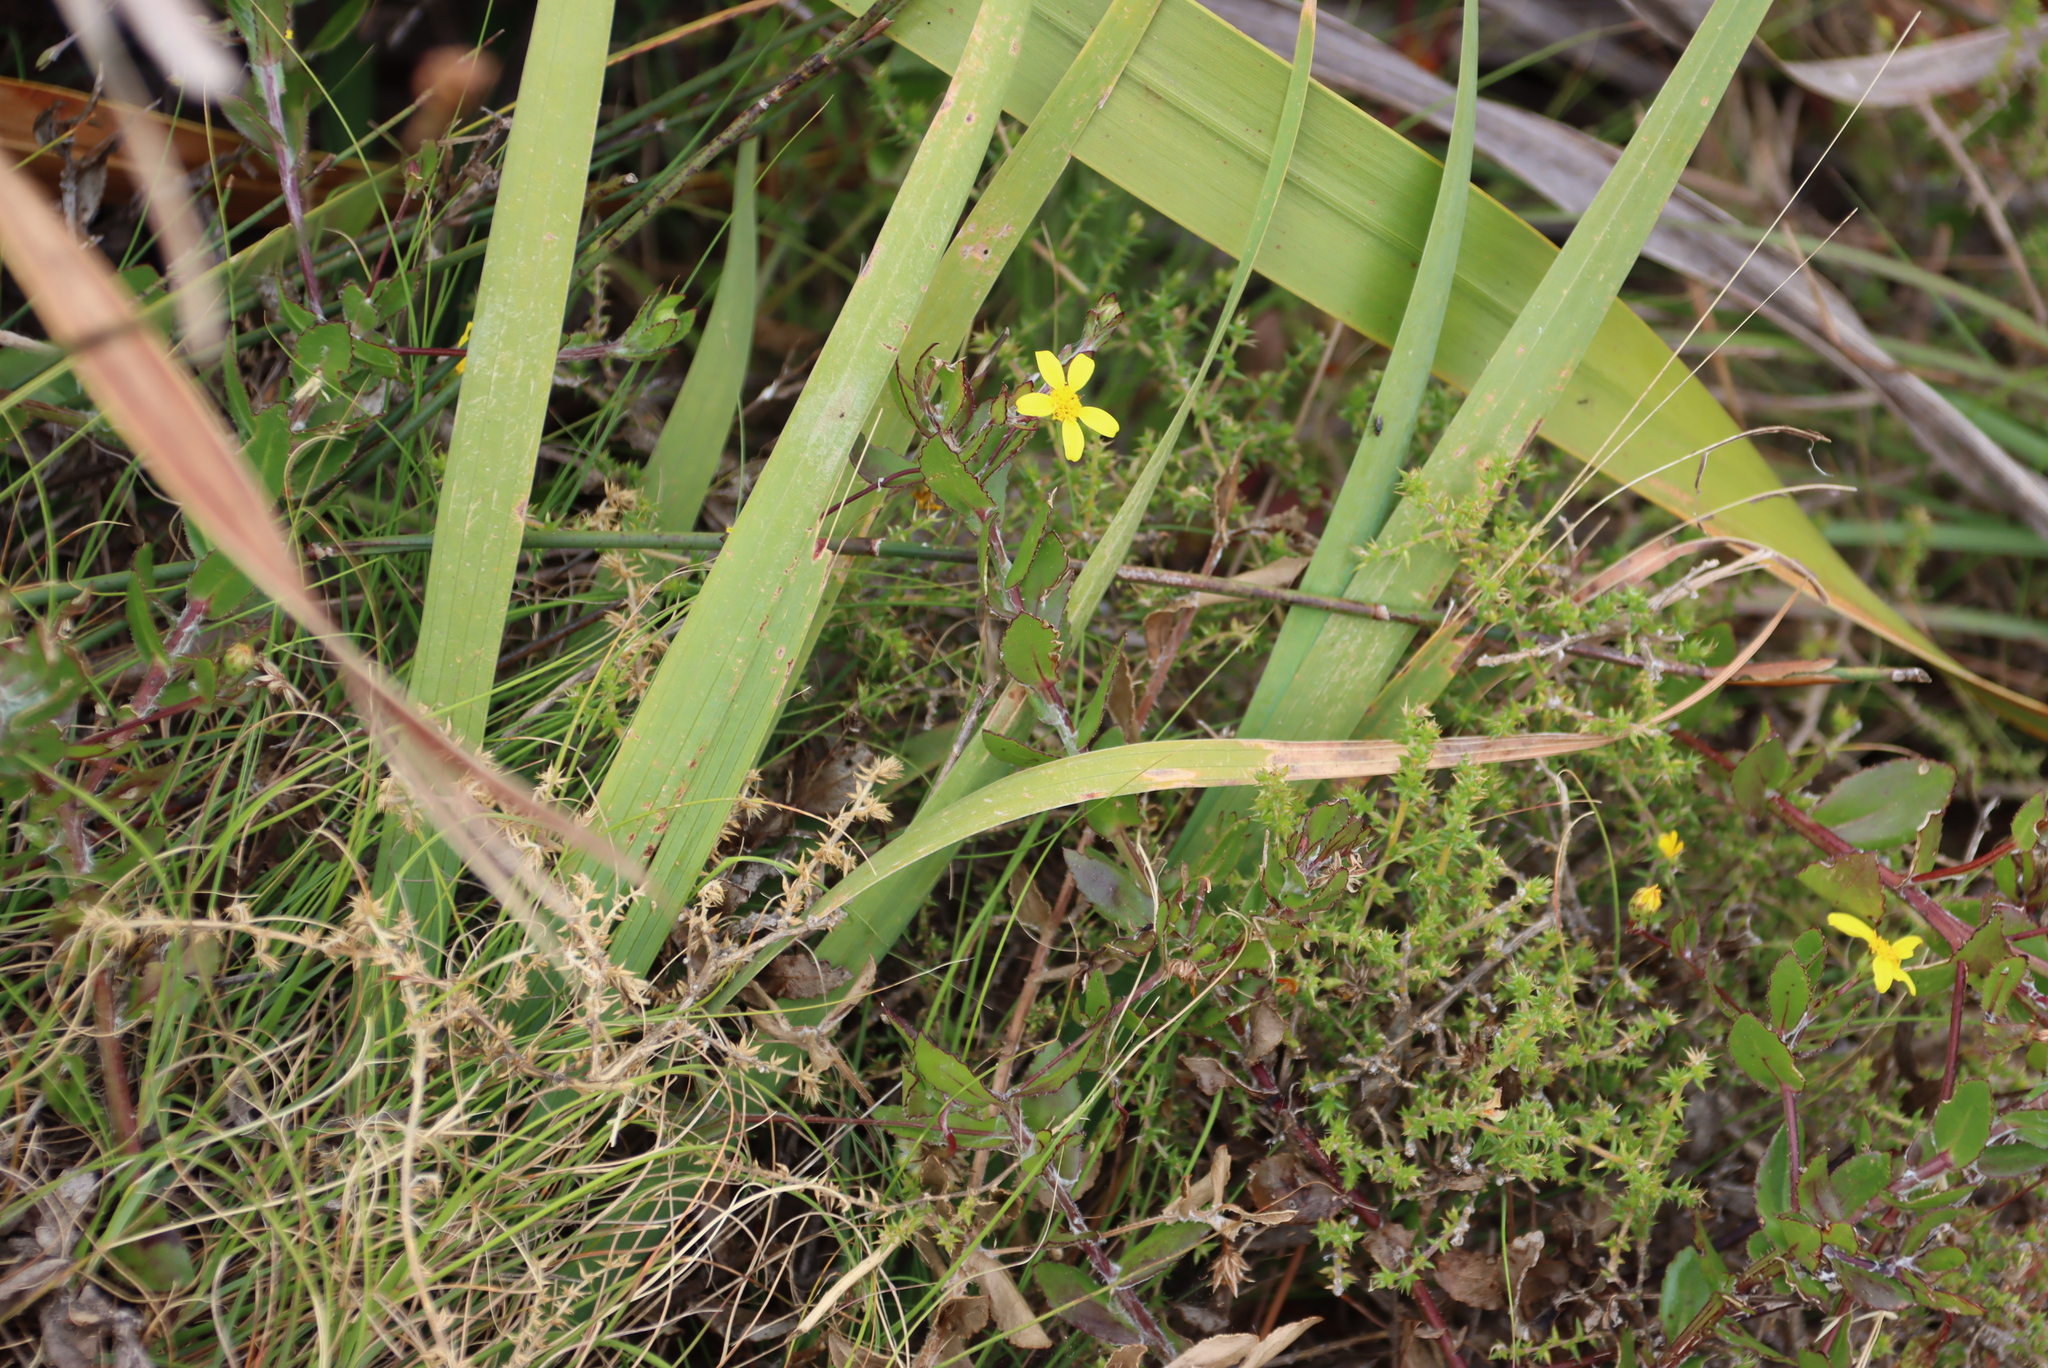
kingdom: Plantae
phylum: Tracheophyta
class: Magnoliopsida
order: Asterales
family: Asteraceae
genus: Osteospermum
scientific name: Osteospermum ciliatum
